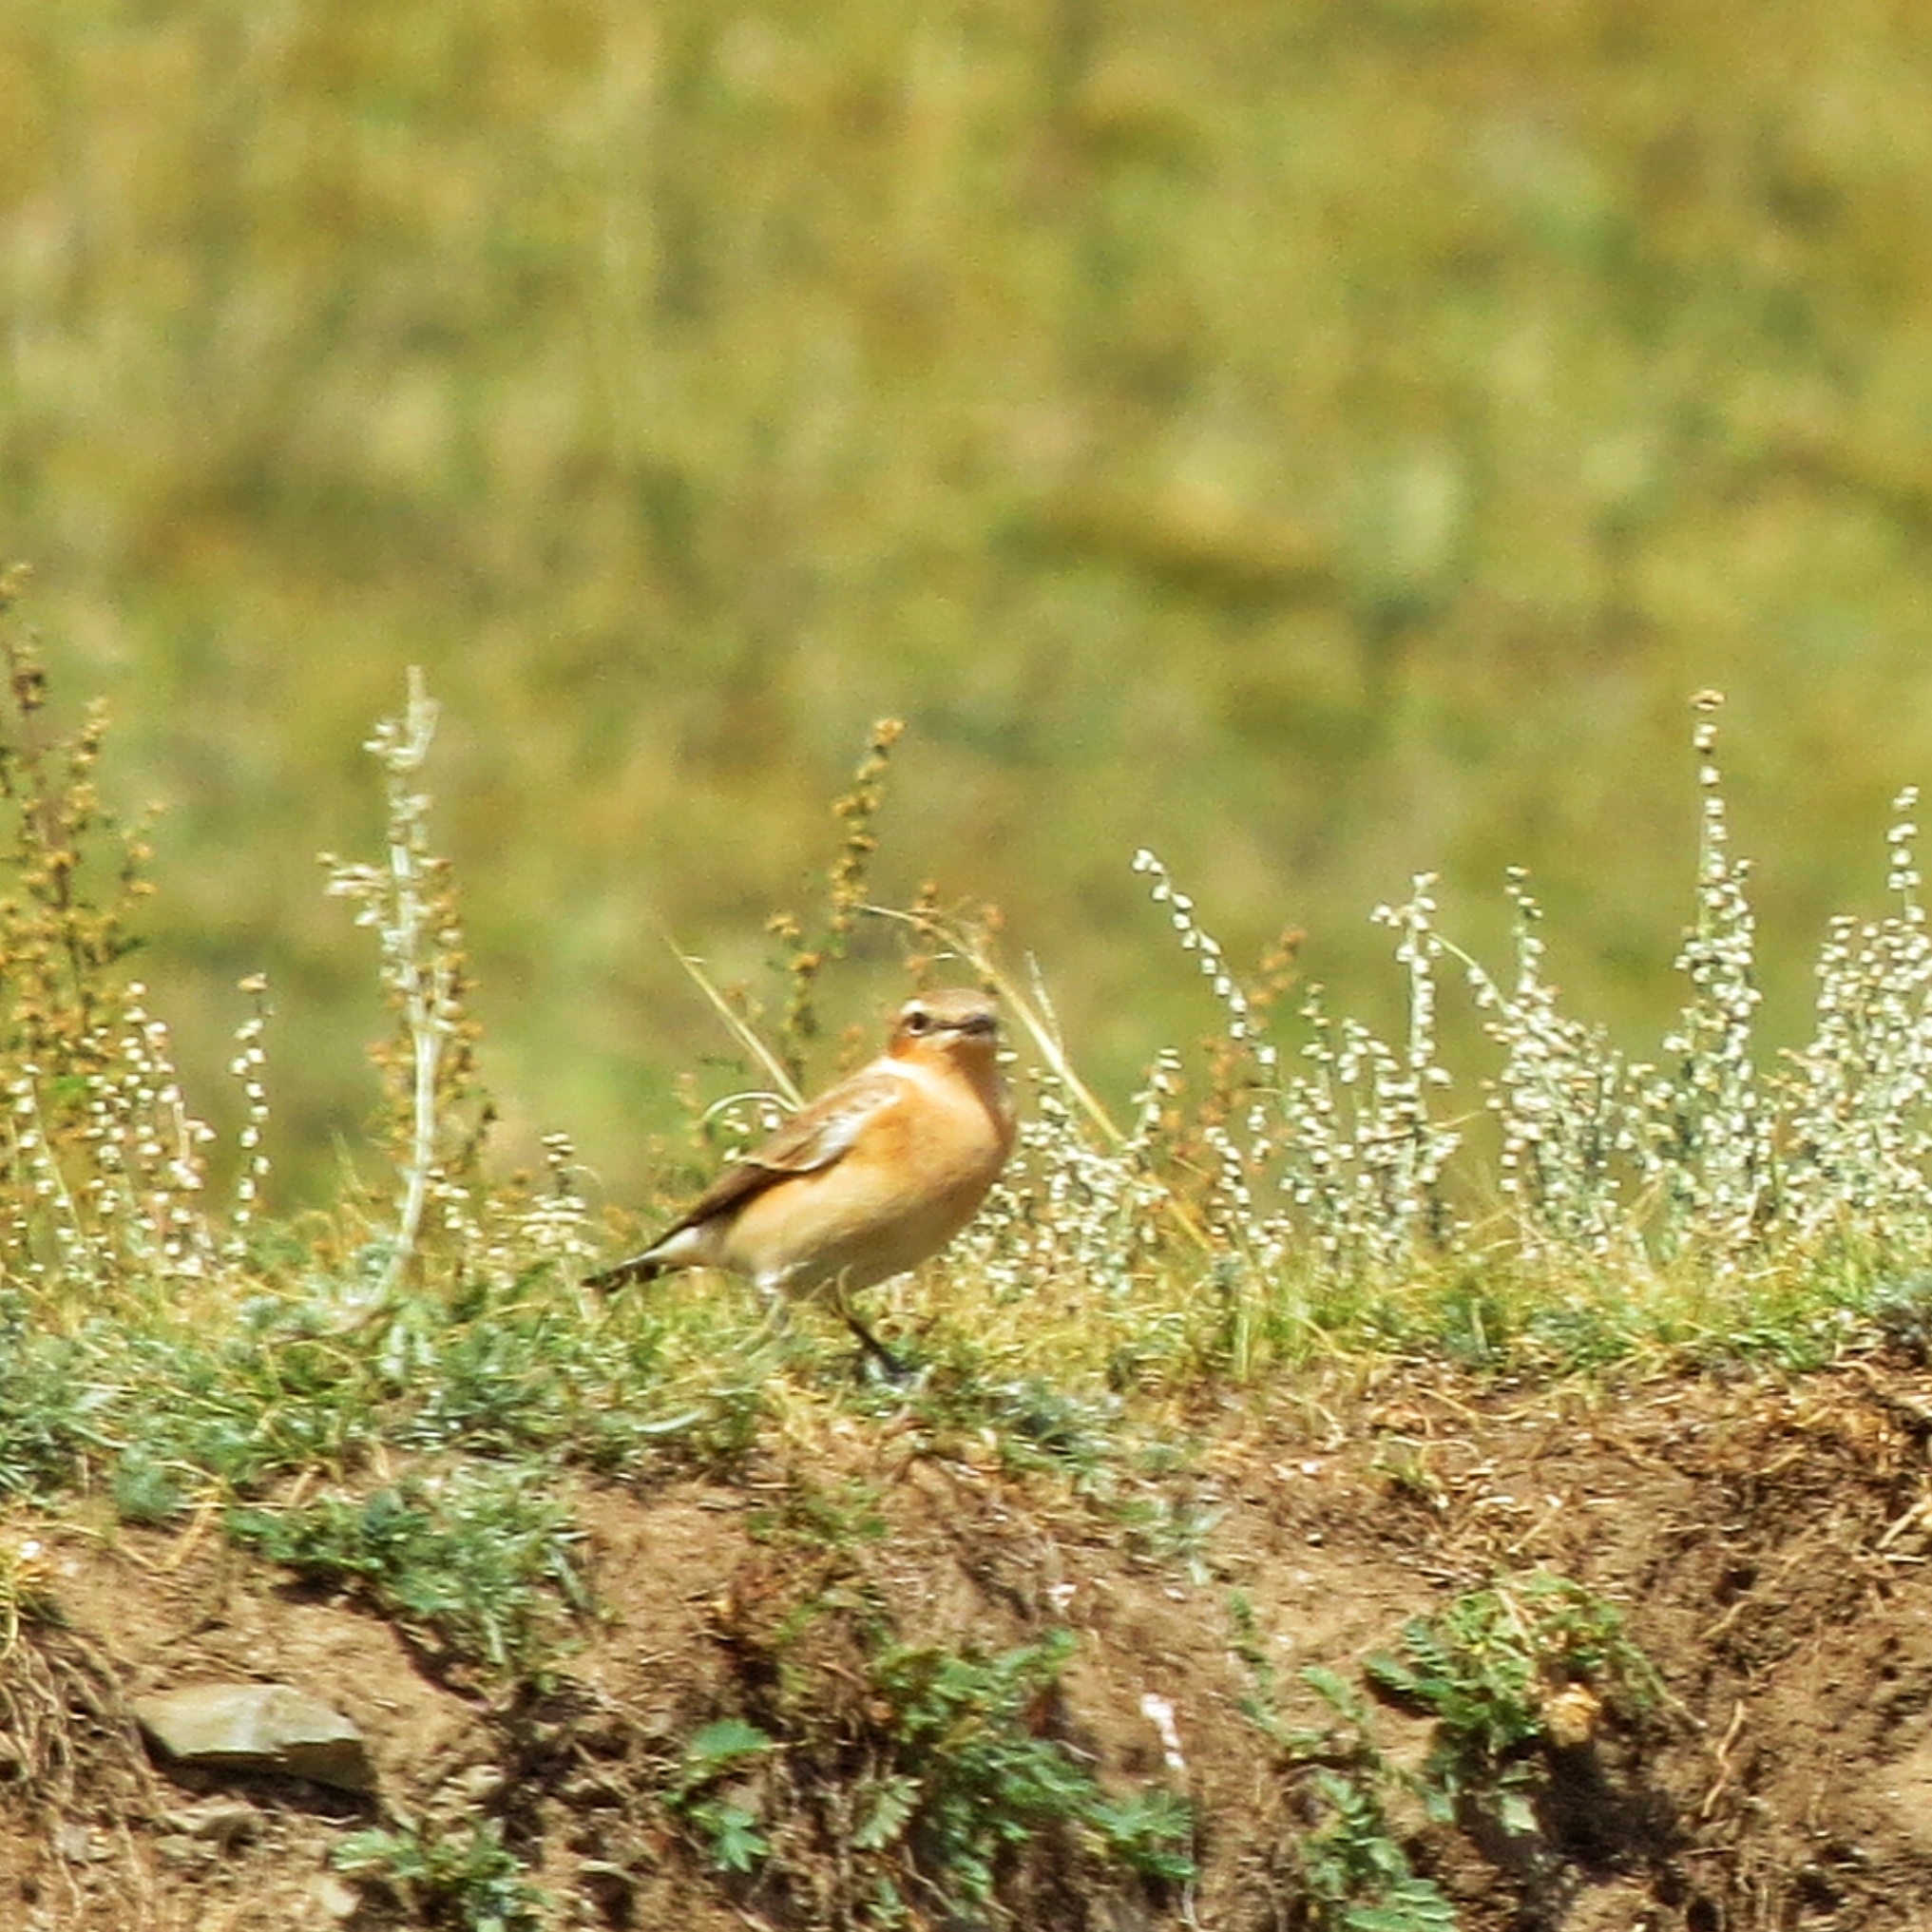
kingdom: Animalia
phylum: Chordata
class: Aves
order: Passeriformes
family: Muscicapidae
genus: Oenanthe
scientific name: Oenanthe isabellina
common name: Isabelline wheatear
